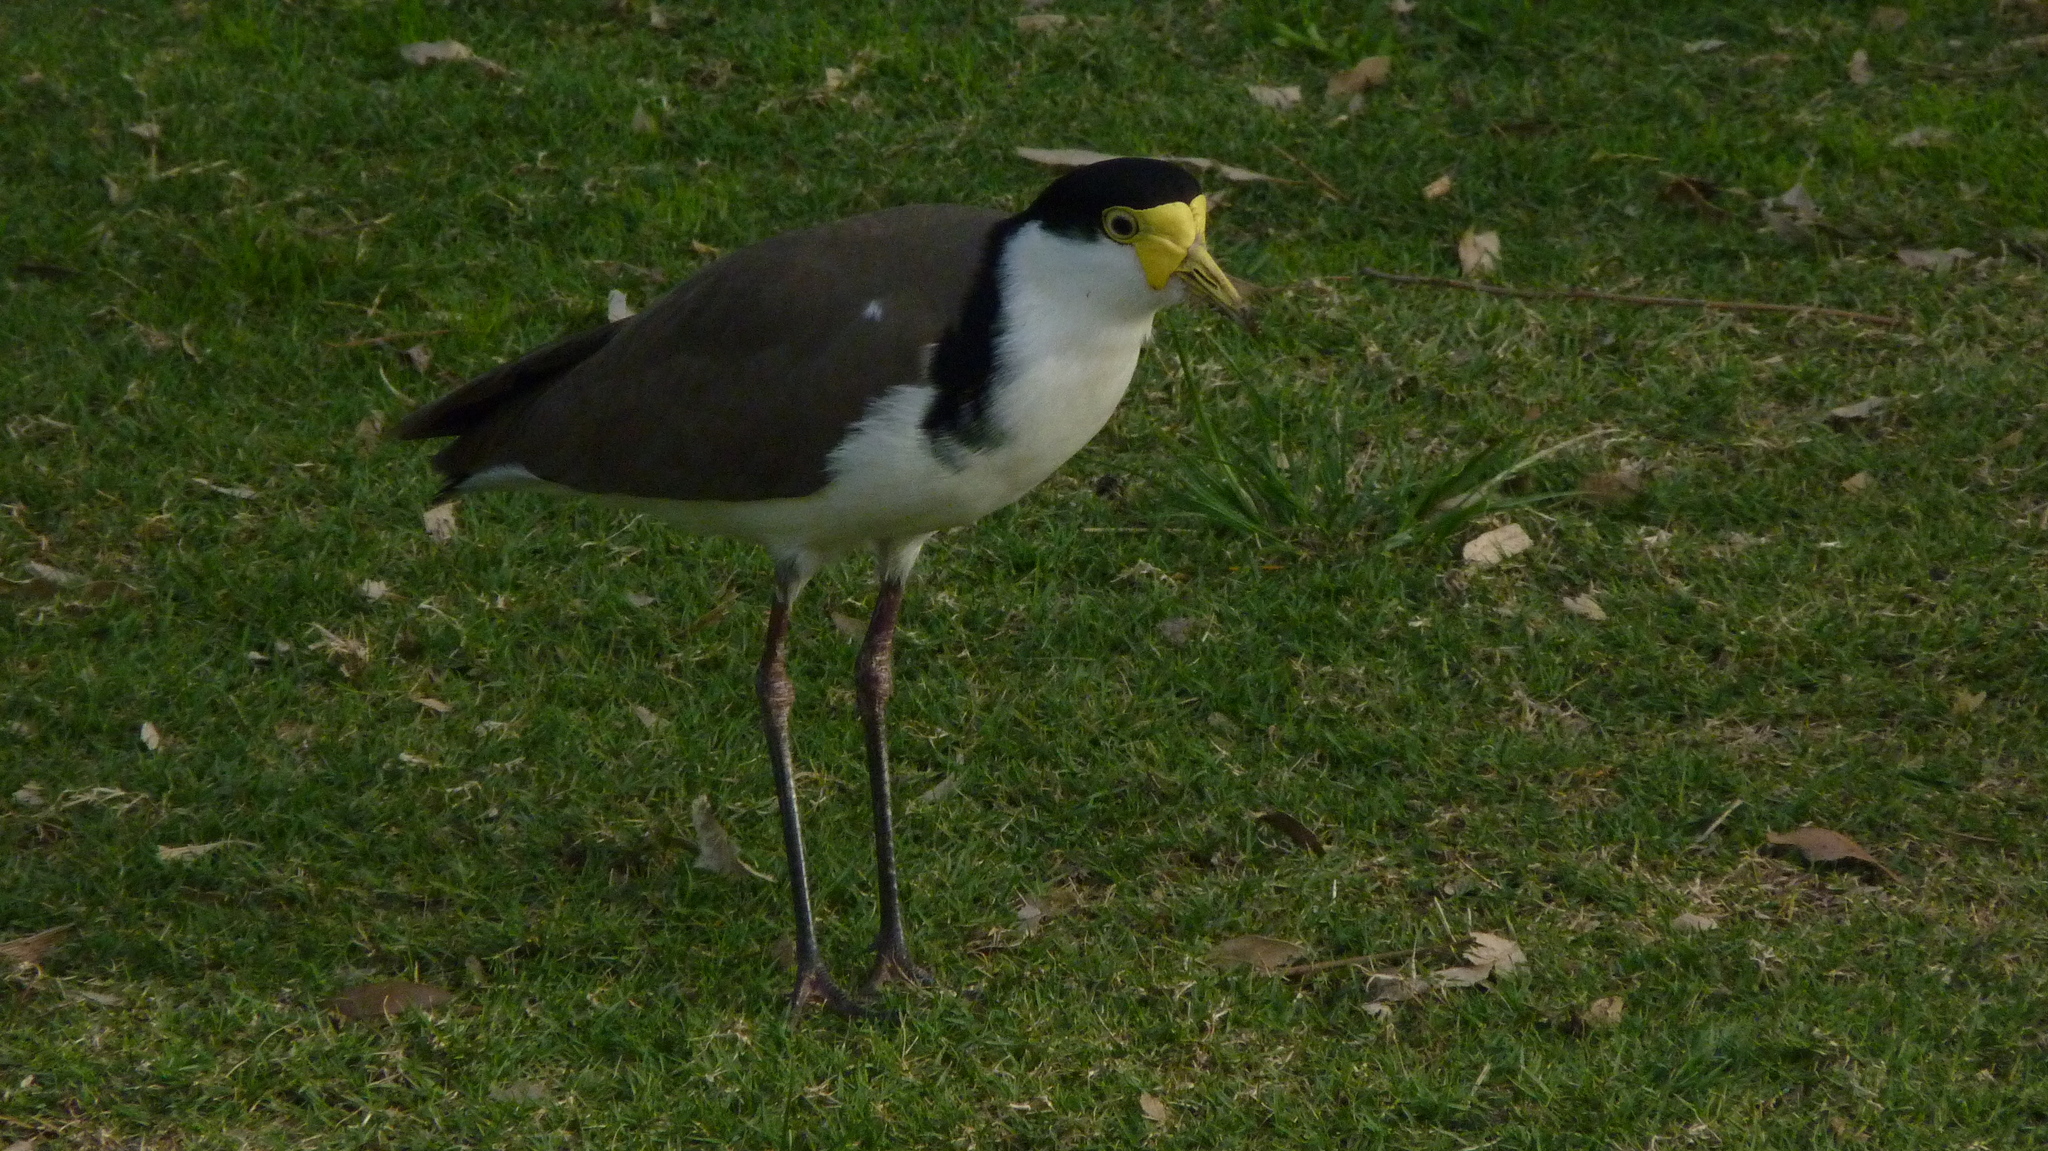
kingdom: Animalia
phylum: Chordata
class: Aves
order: Charadriiformes
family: Charadriidae
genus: Vanellus
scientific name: Vanellus miles
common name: Masked lapwing
